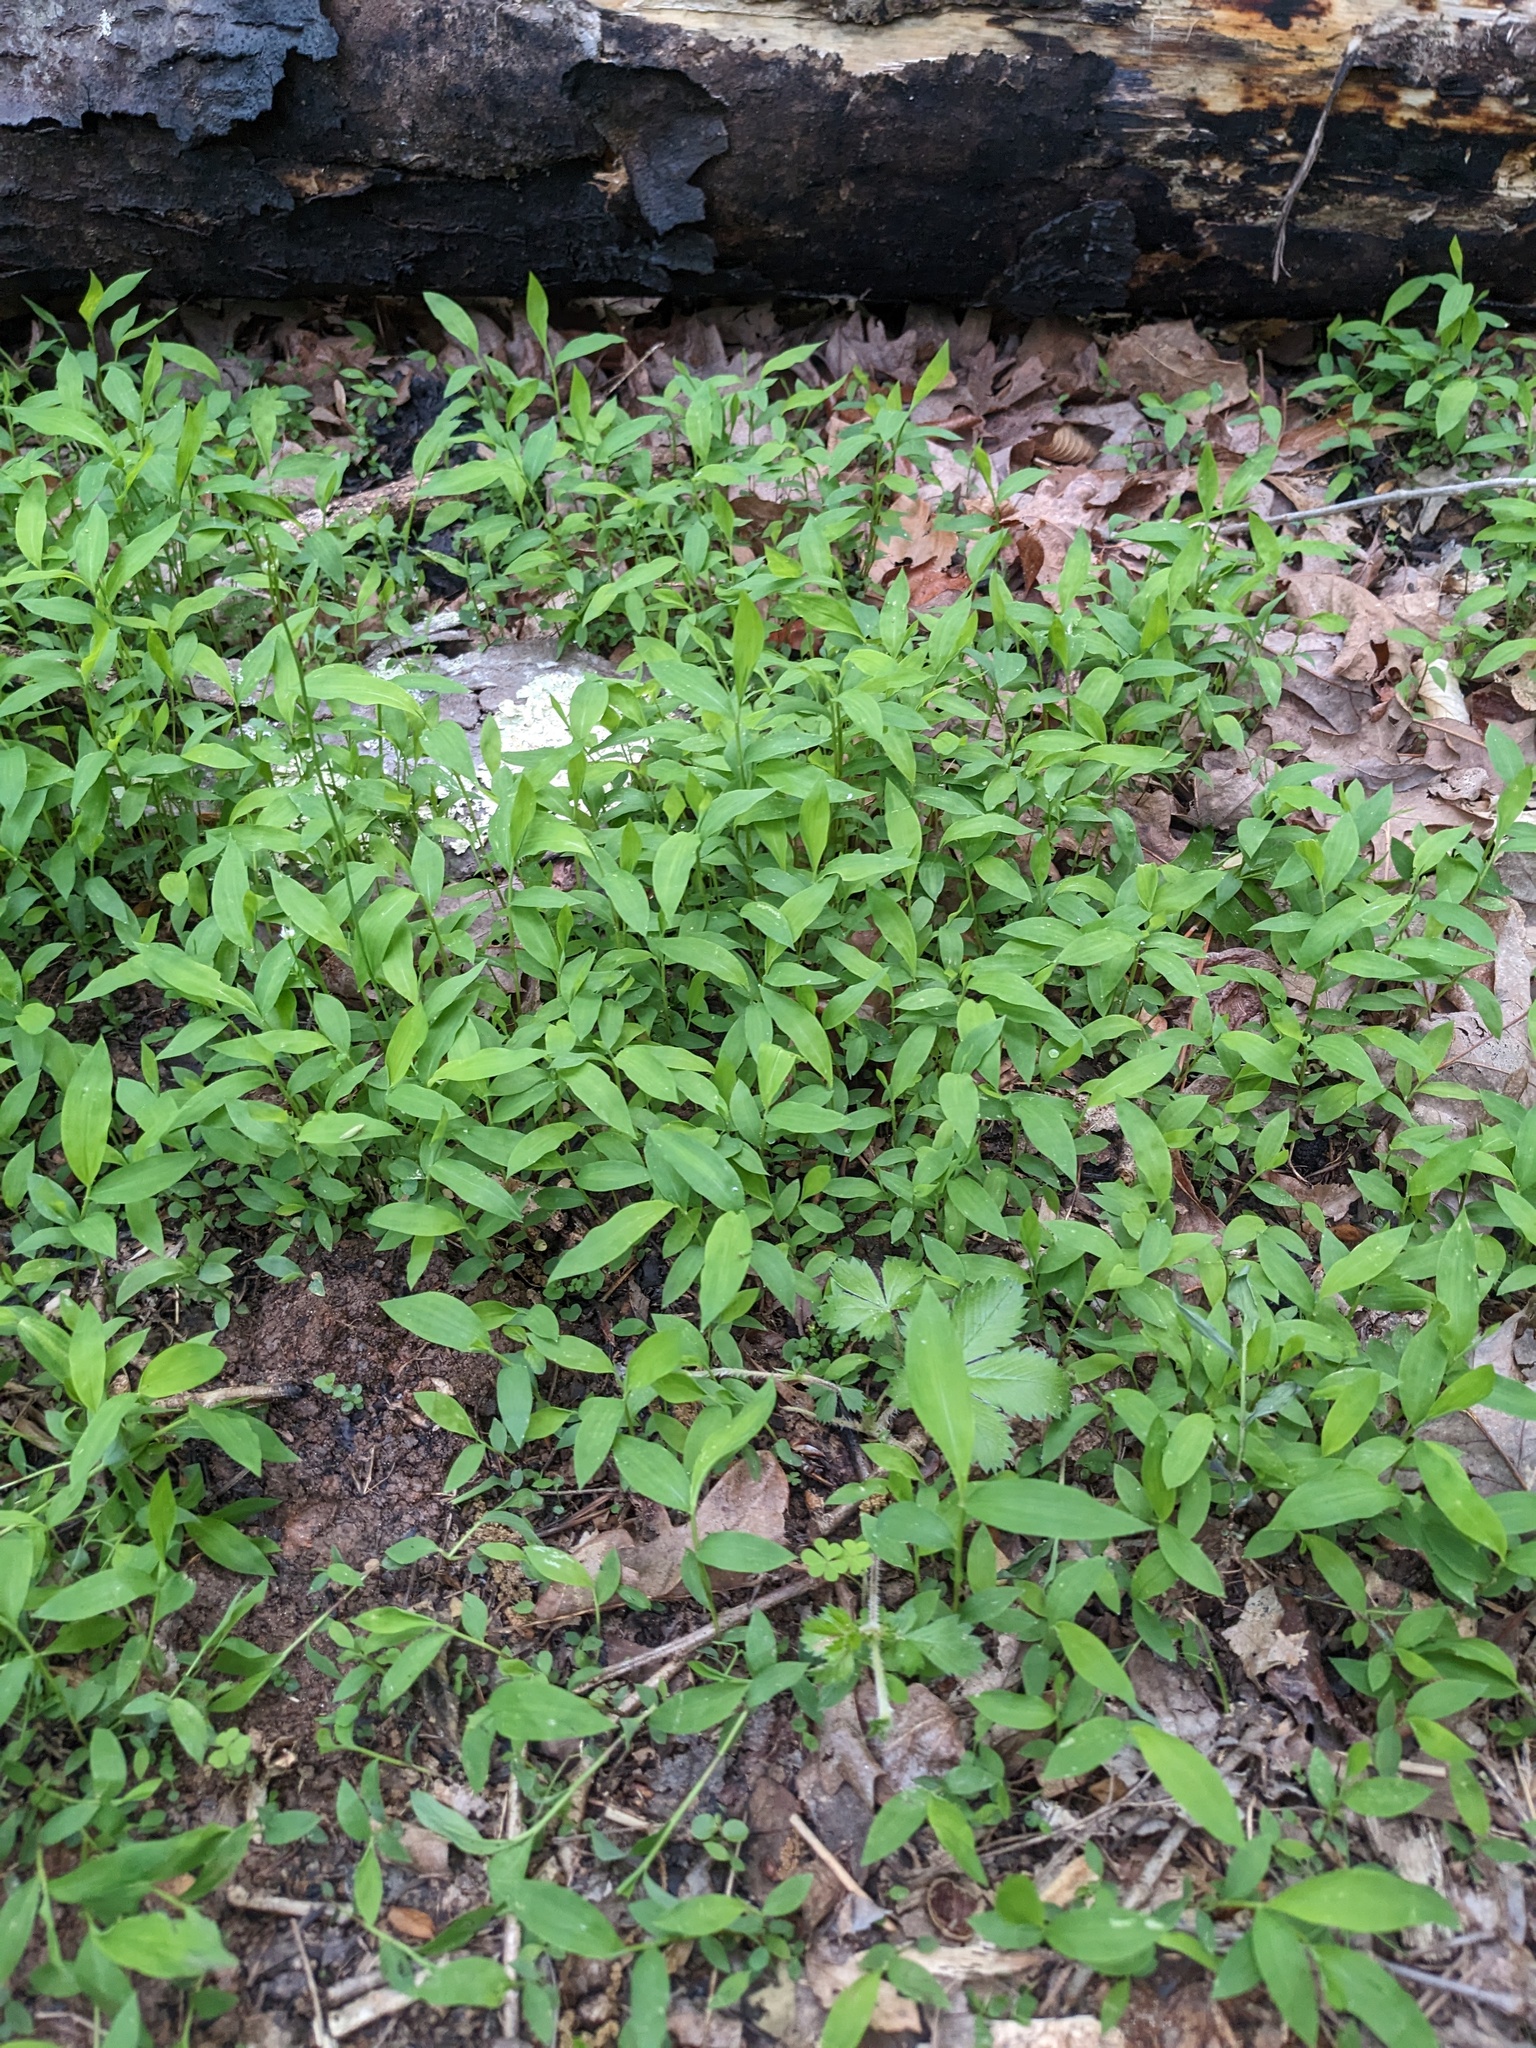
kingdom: Plantae
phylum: Tracheophyta
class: Liliopsida
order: Poales
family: Poaceae
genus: Microstegium
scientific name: Microstegium vimineum
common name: Japanese stiltgrass
